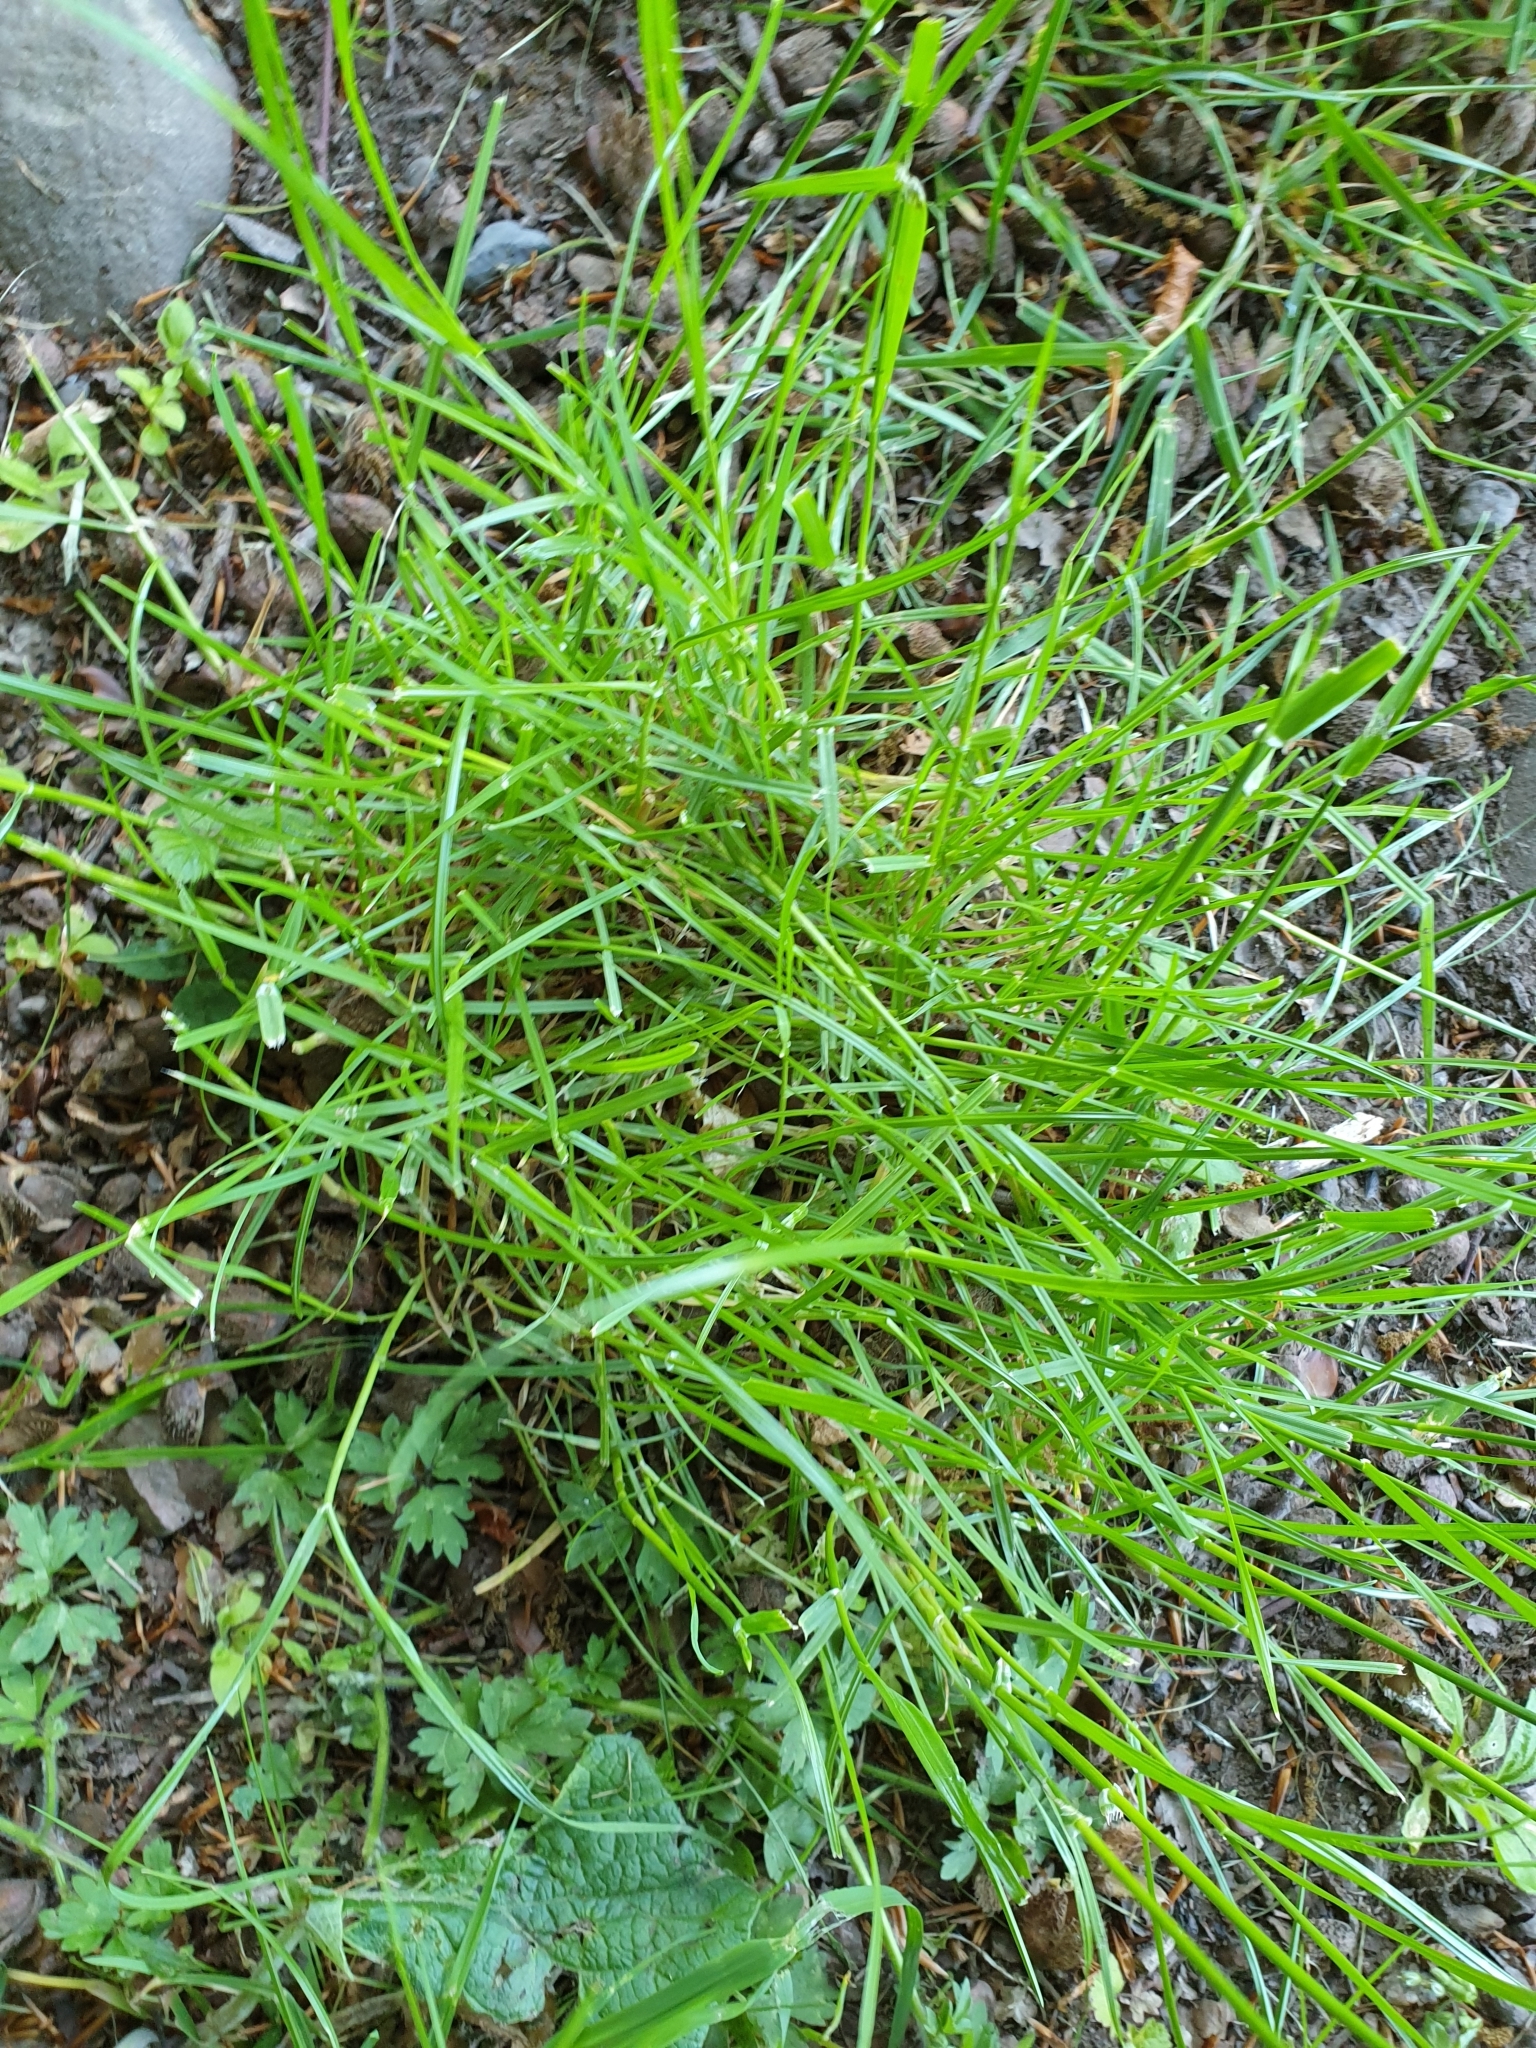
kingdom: Plantae
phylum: Tracheophyta
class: Liliopsida
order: Poales
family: Poaceae
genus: Lolium
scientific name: Lolium perenne
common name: Perennial ryegrass
